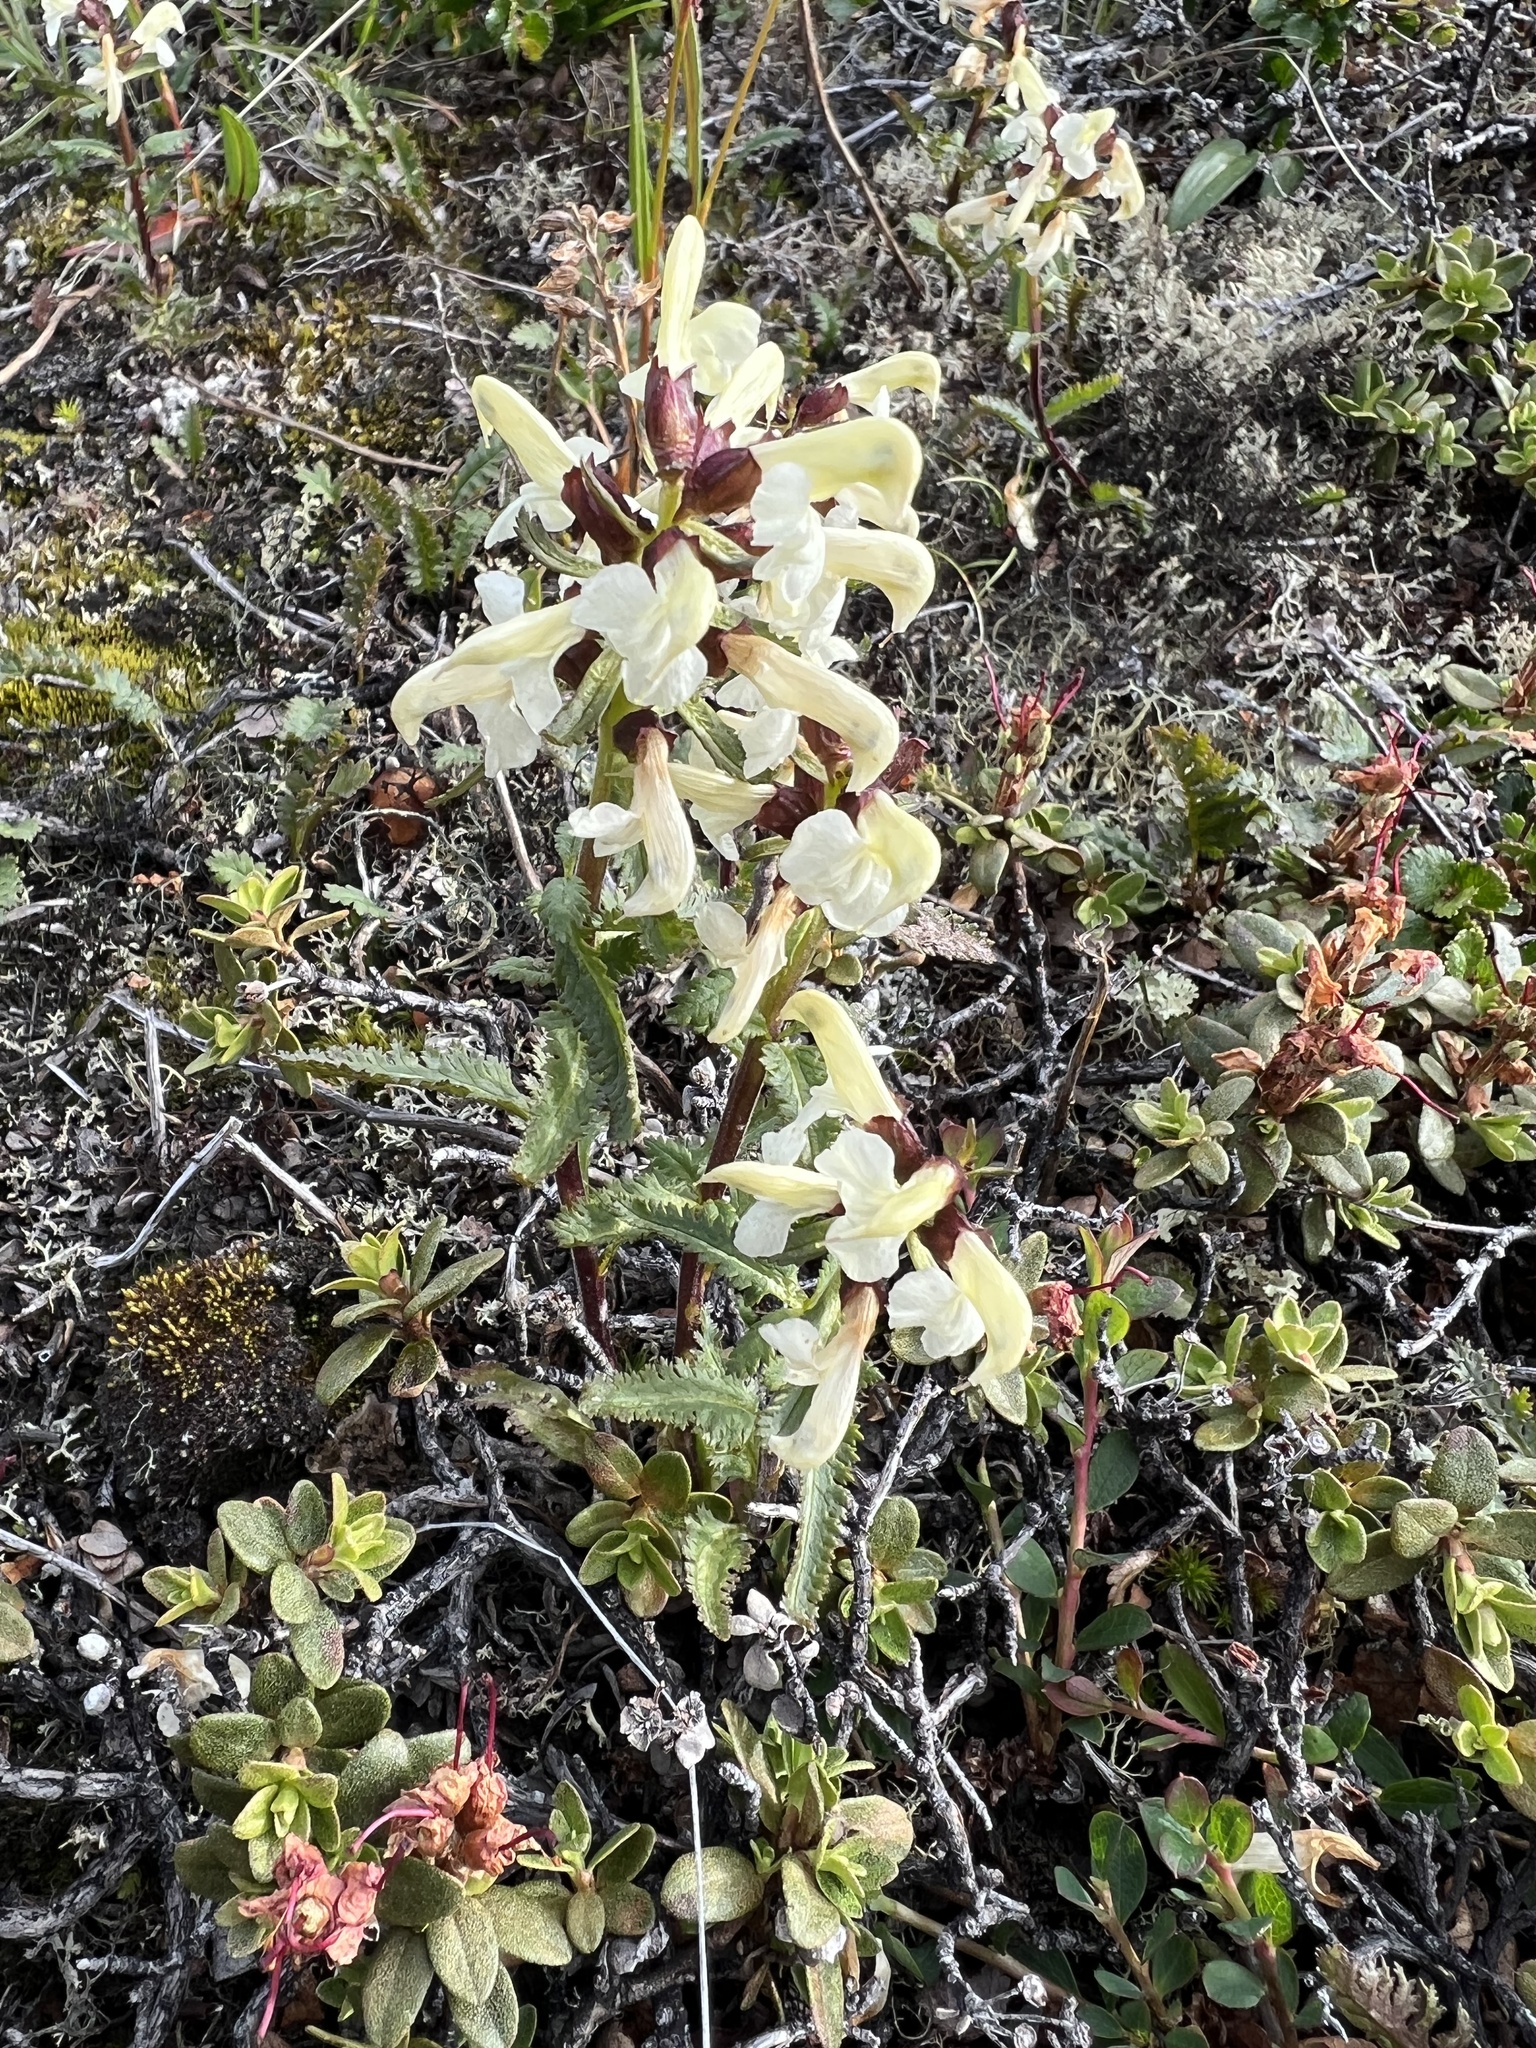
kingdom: Plantae
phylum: Tracheophyta
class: Magnoliopsida
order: Lamiales
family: Orobanchaceae
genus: Pedicularis
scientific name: Pedicularis lapponica
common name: Lapland lousewort
